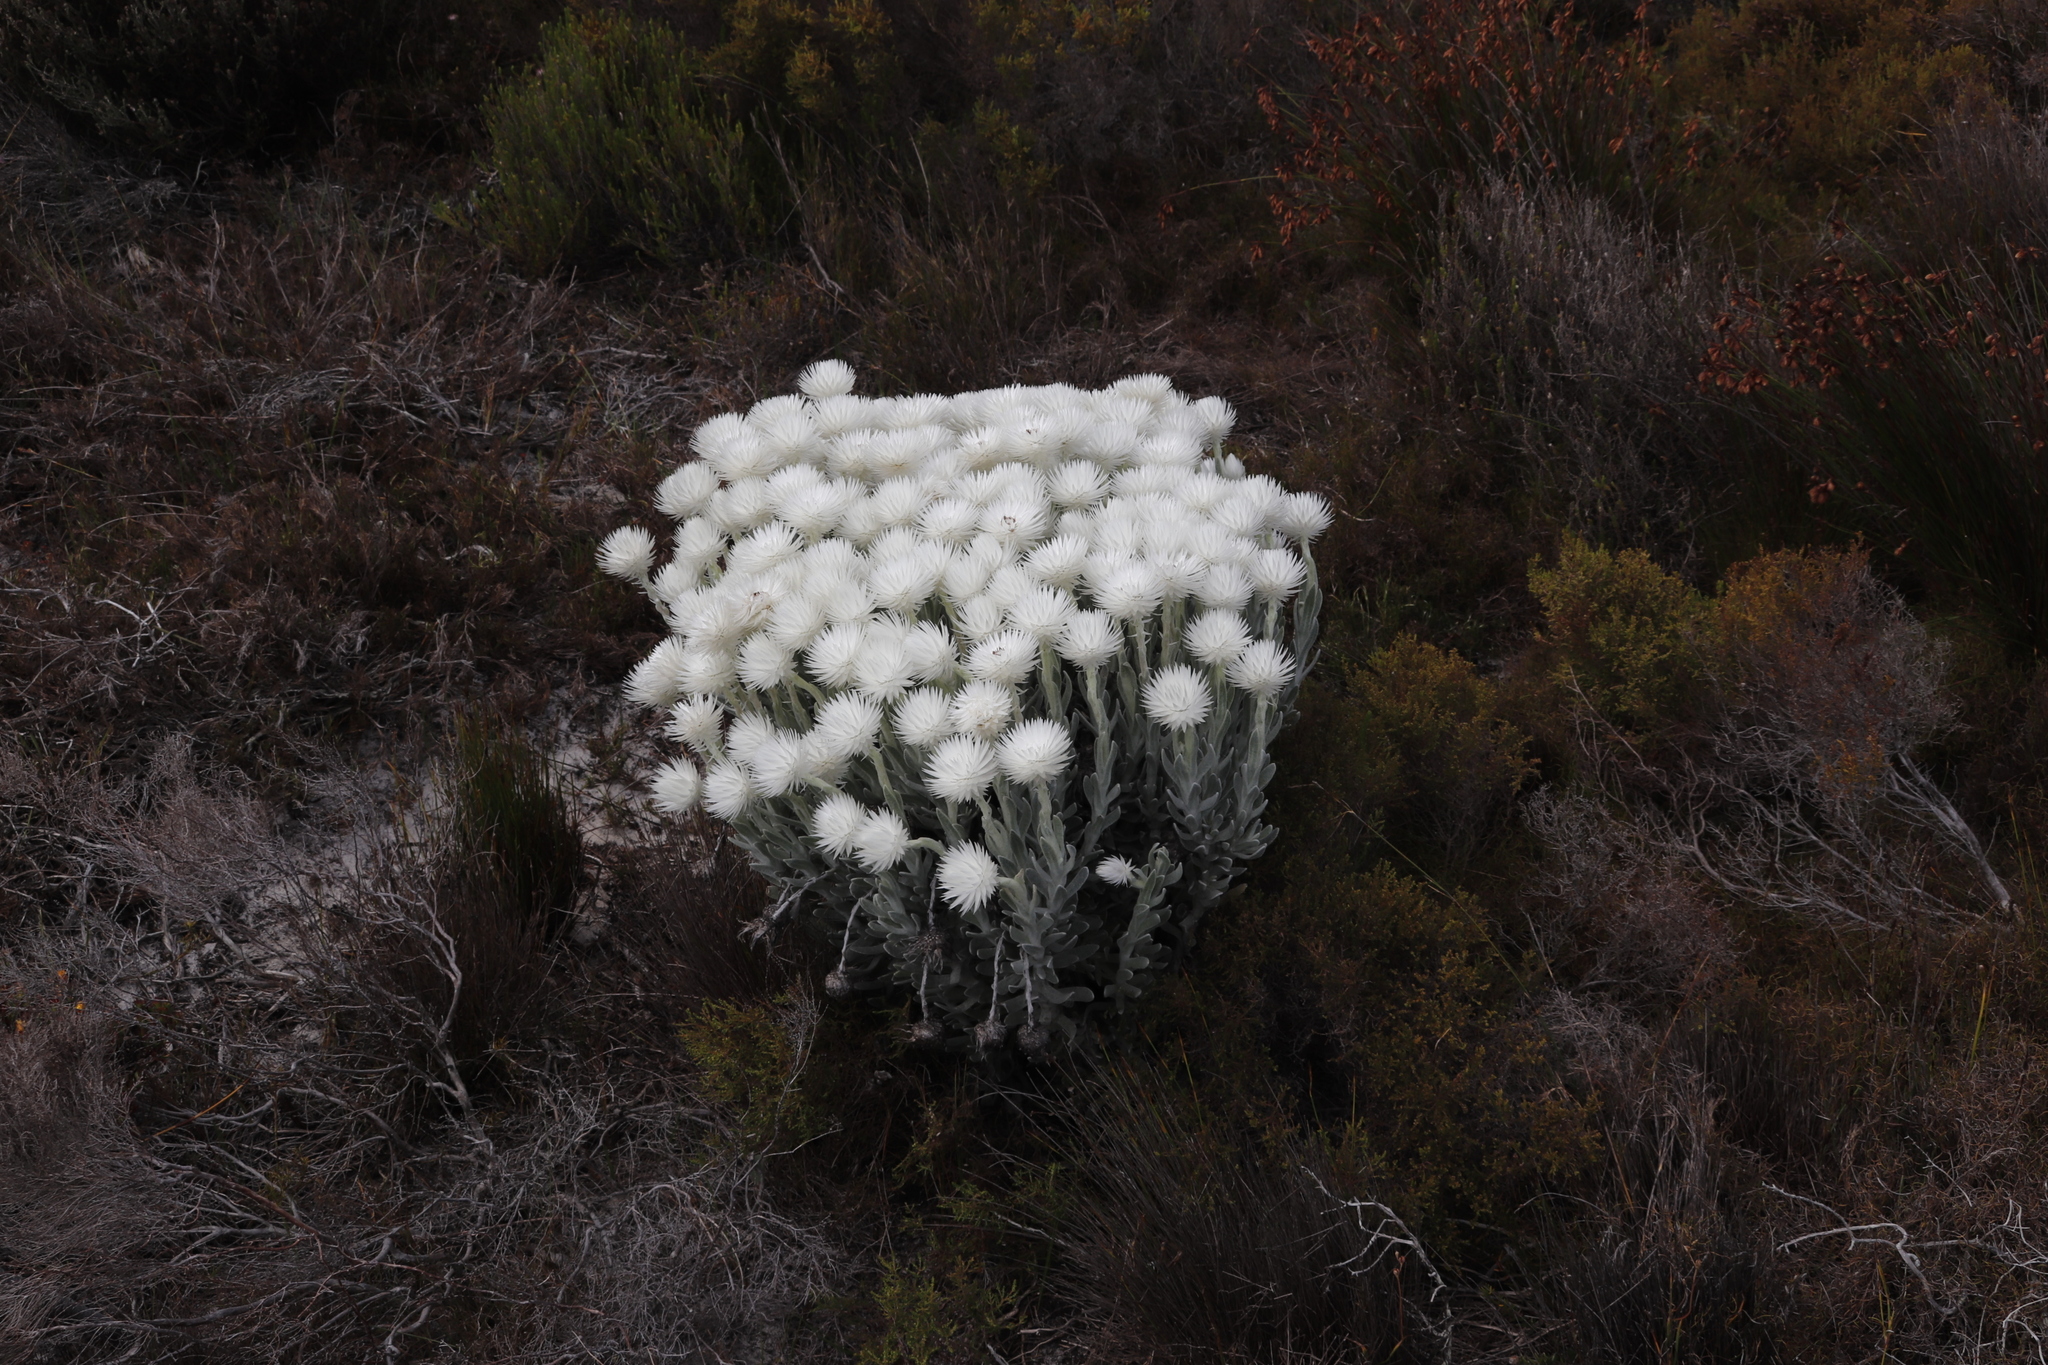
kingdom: Plantae
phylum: Tracheophyta
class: Magnoliopsida
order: Asterales
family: Asteraceae
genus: Syncarpha
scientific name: Syncarpha vestita
